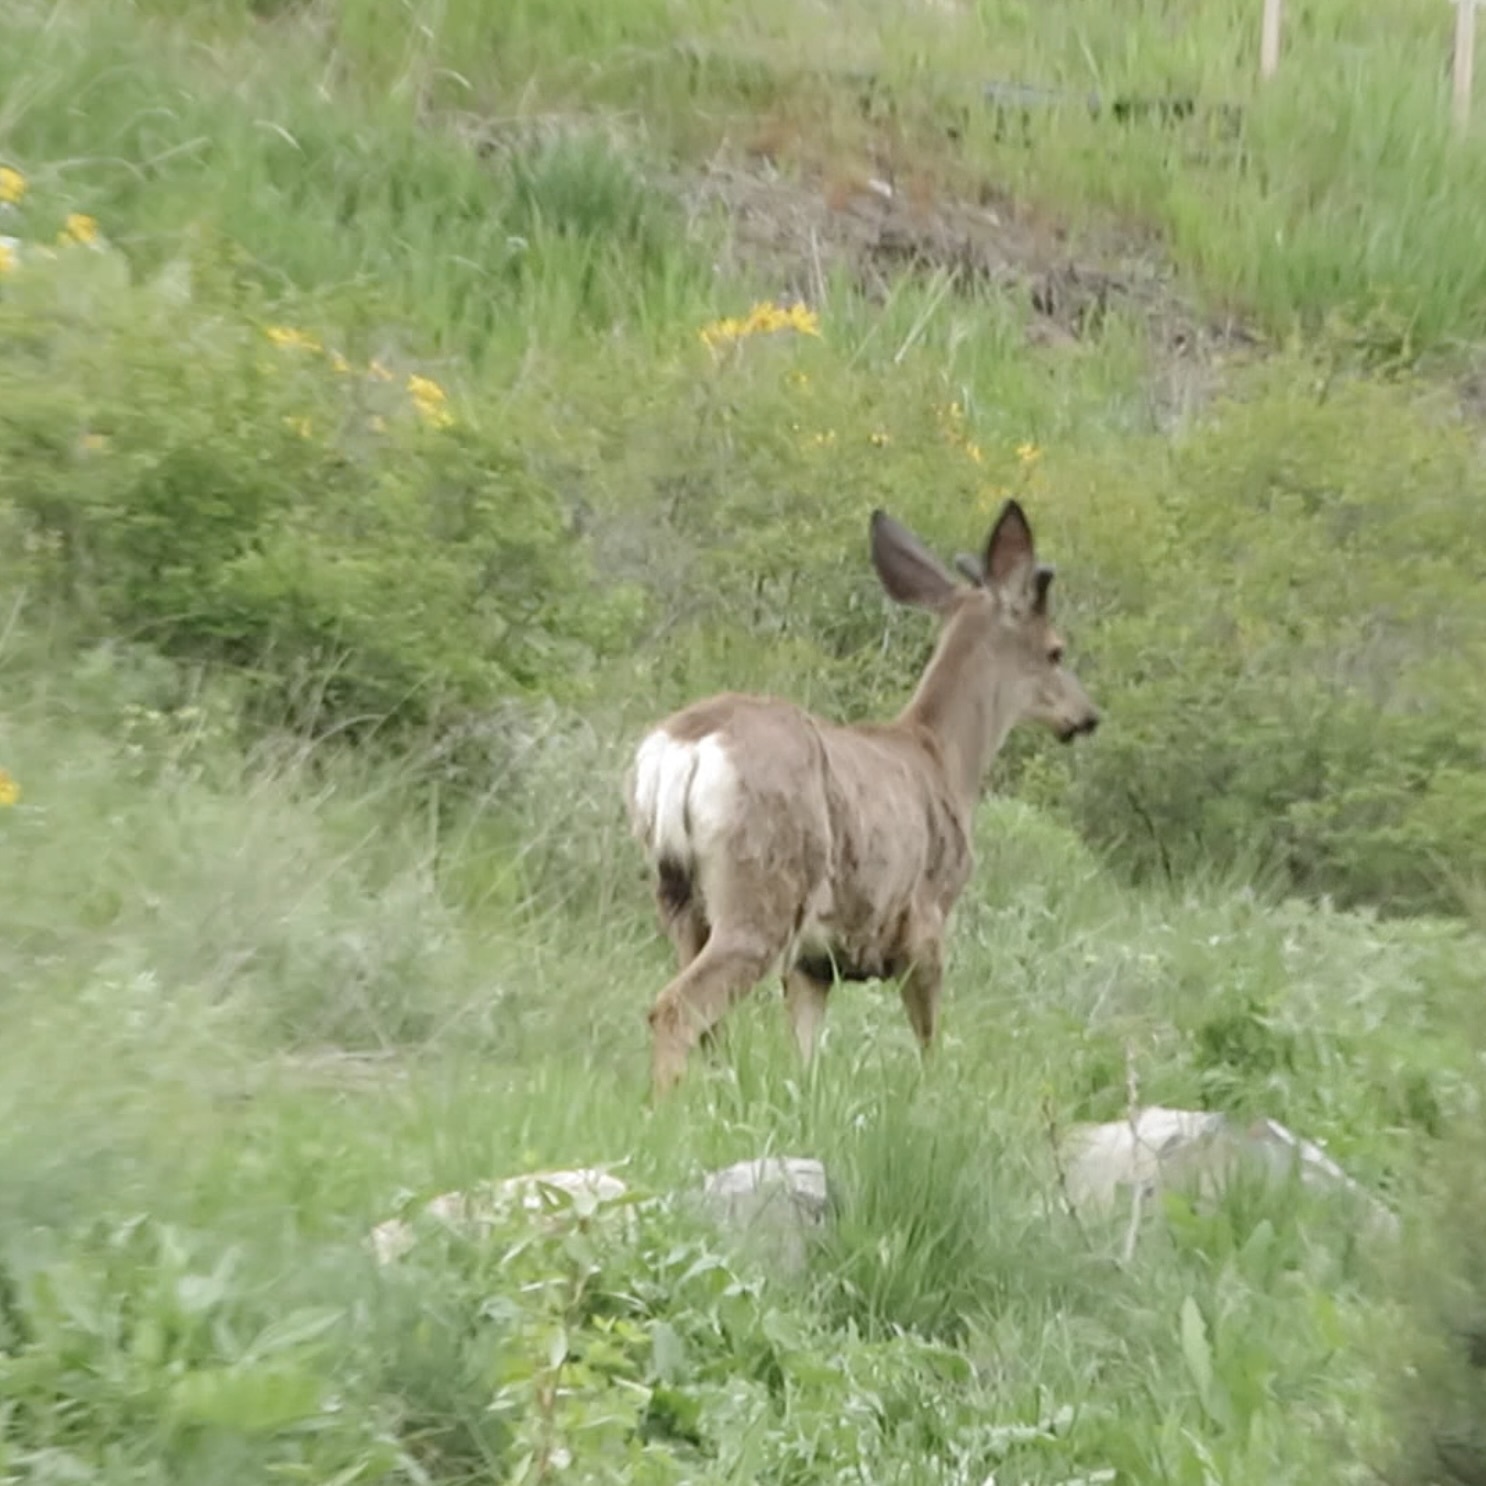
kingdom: Animalia
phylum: Chordata
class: Mammalia
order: Artiodactyla
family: Cervidae
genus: Odocoileus
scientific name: Odocoileus hemionus
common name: Mule deer
